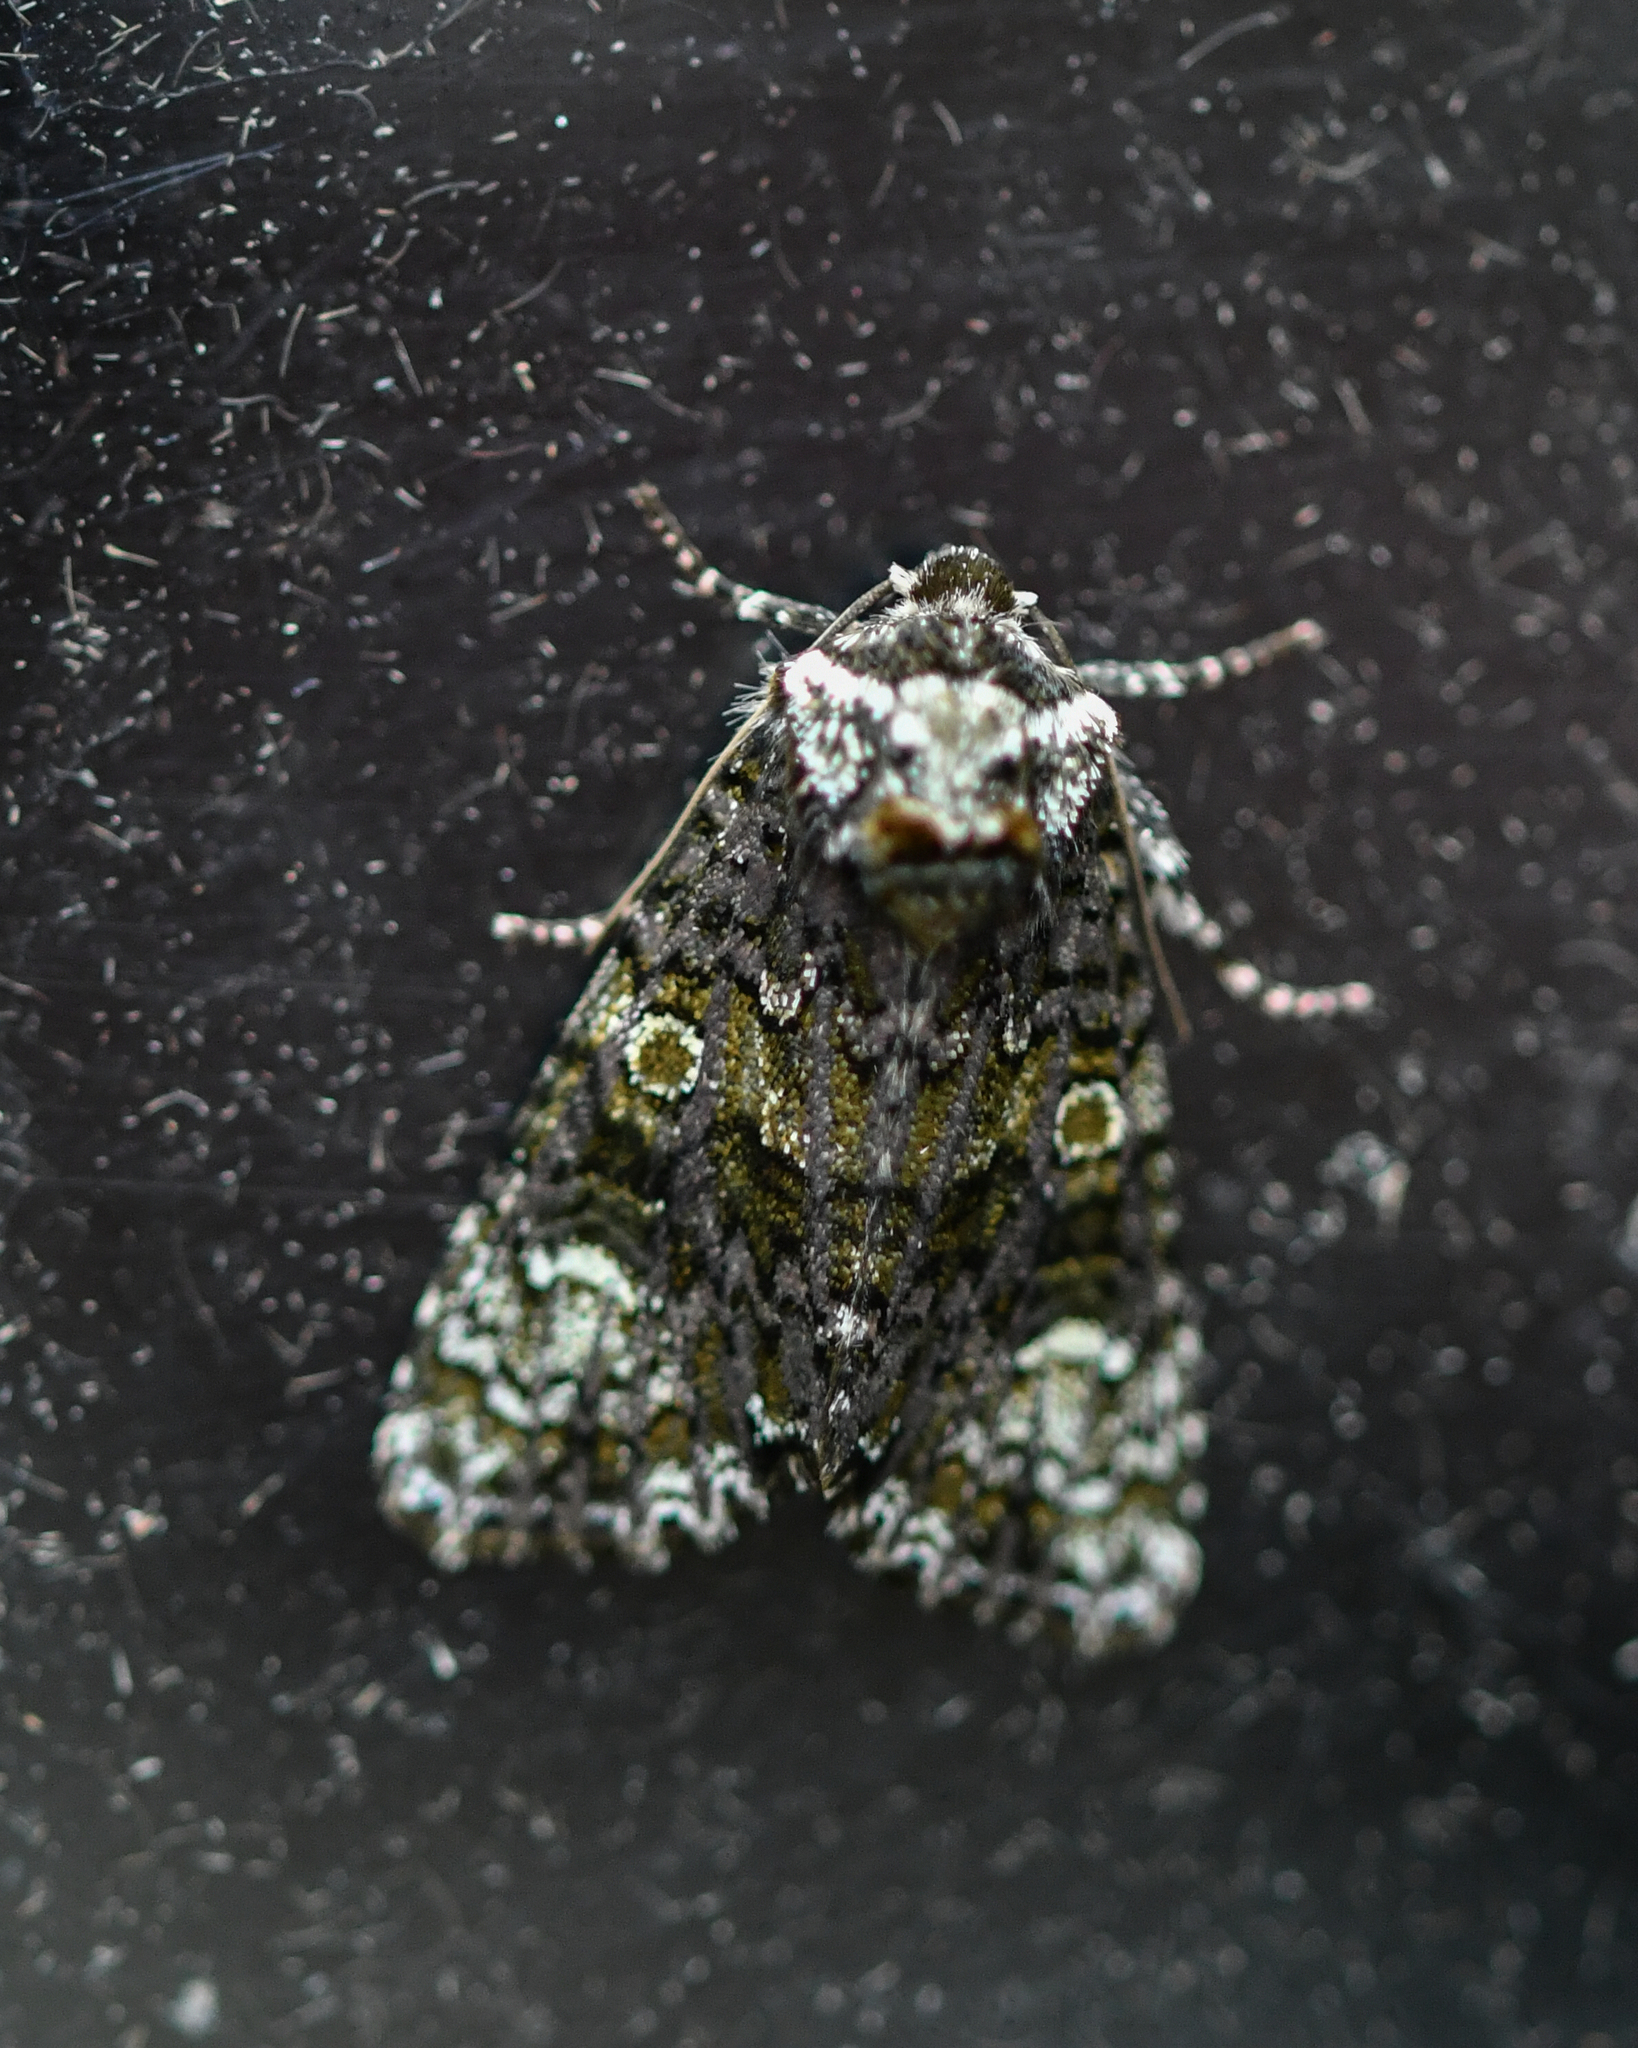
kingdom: Animalia
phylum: Arthropoda
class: Insecta
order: Lepidoptera
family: Noctuidae
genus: Craniophora
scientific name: Craniophora ligustri
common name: Coronet
